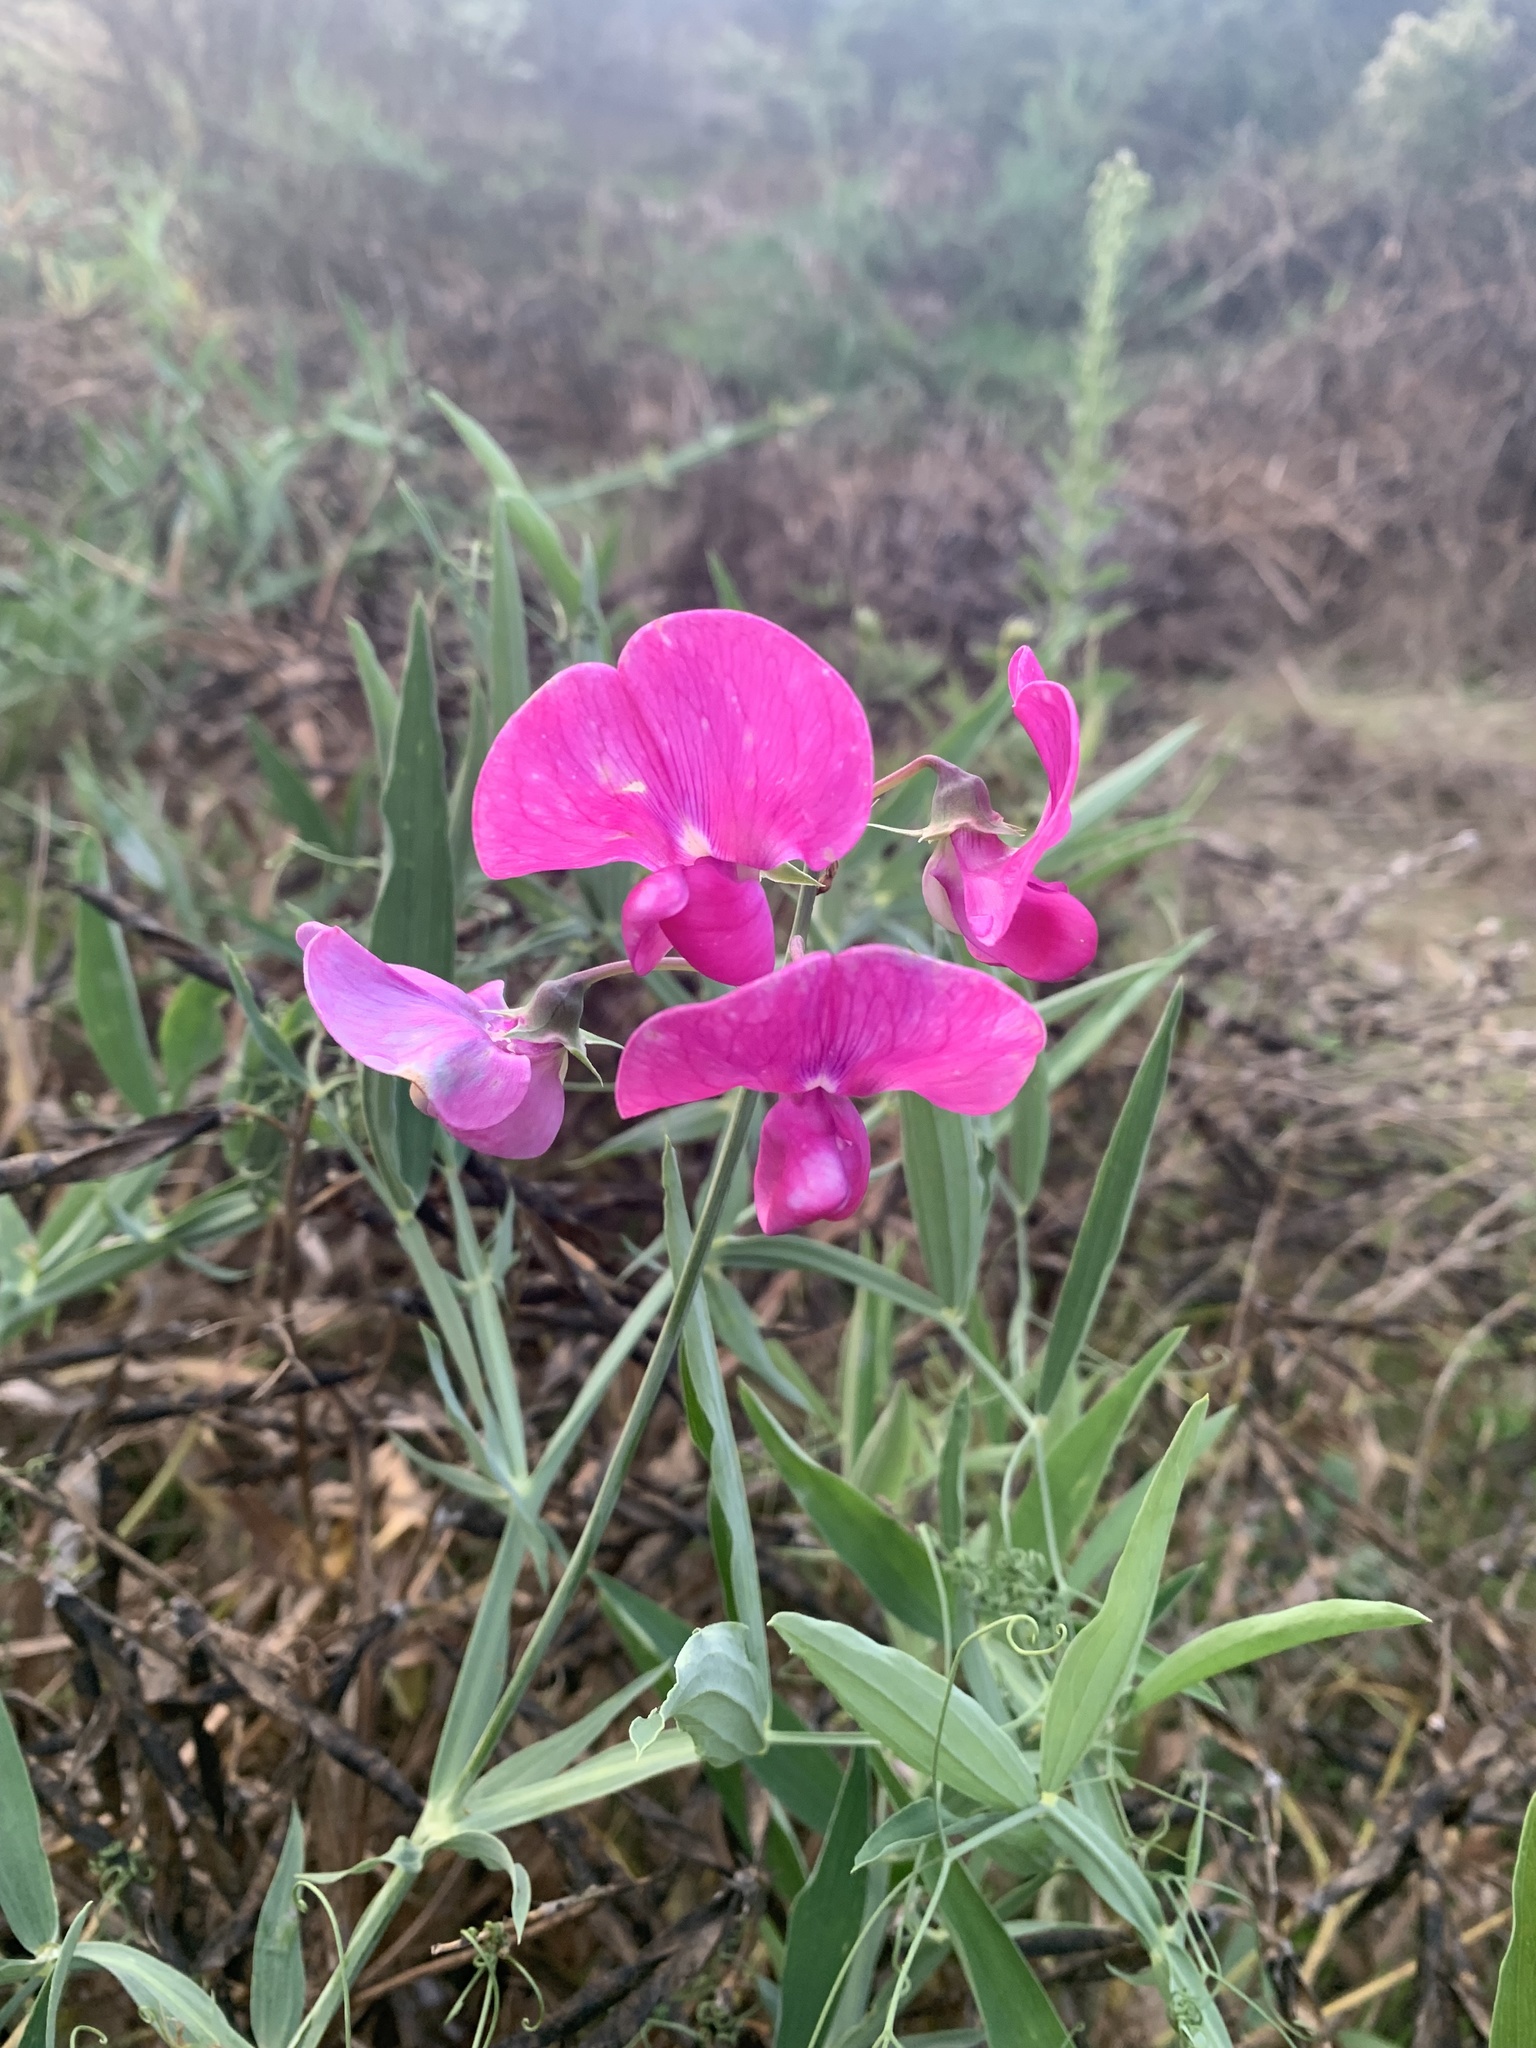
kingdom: Plantae
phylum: Tracheophyta
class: Magnoliopsida
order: Fabales
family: Fabaceae
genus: Lathyrus
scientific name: Lathyrus latifolius
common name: Perennial pea
